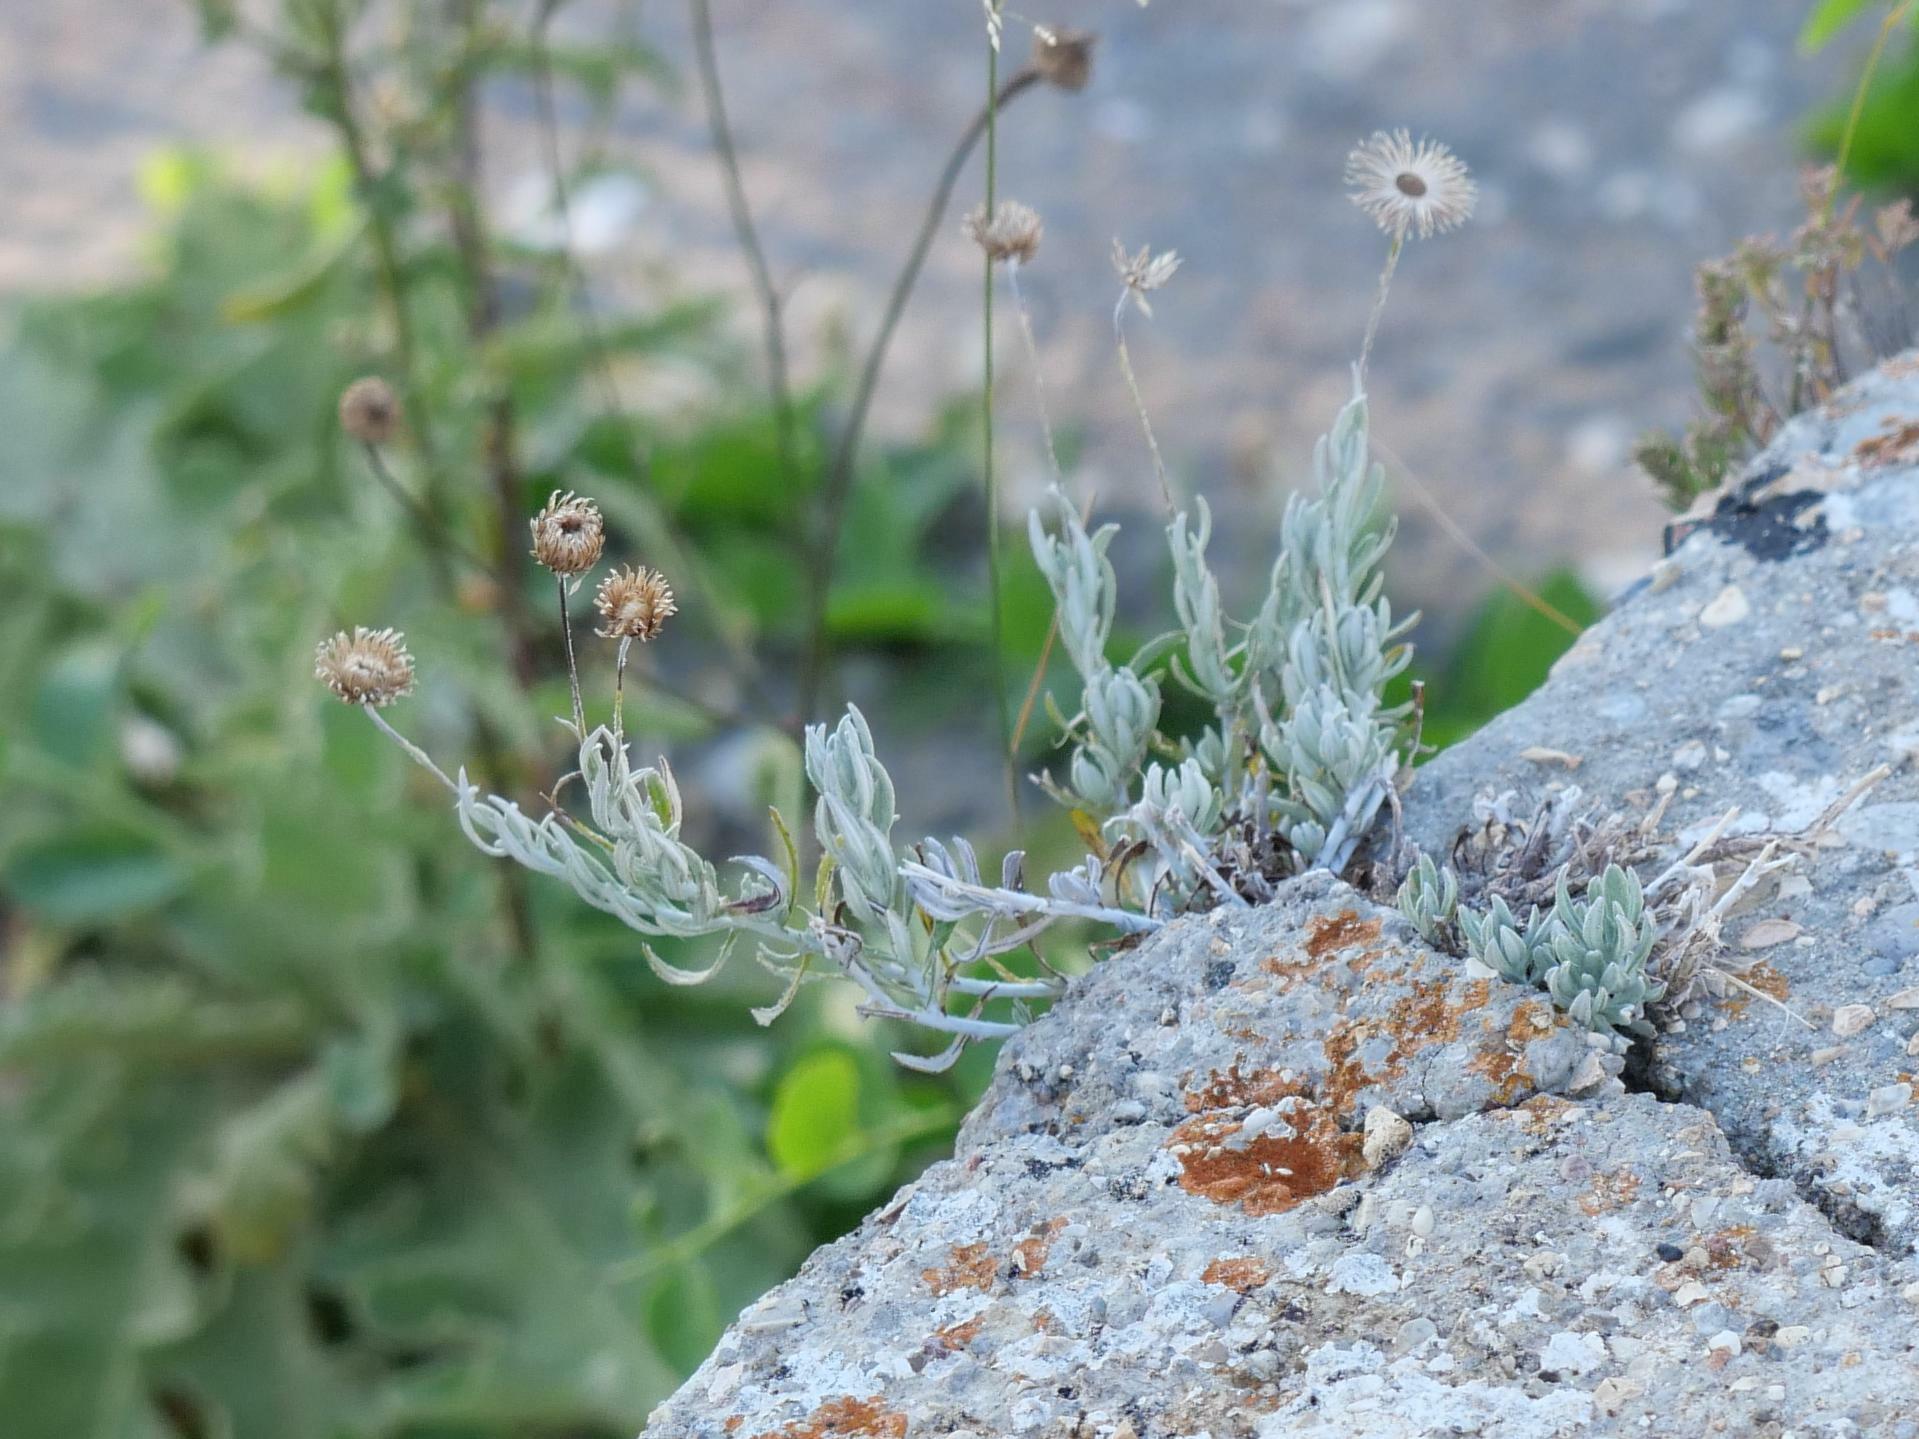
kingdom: Plantae
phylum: Tracheophyta
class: Magnoliopsida
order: Asterales
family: Asteraceae
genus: Phagnalon
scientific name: Phagnalon
